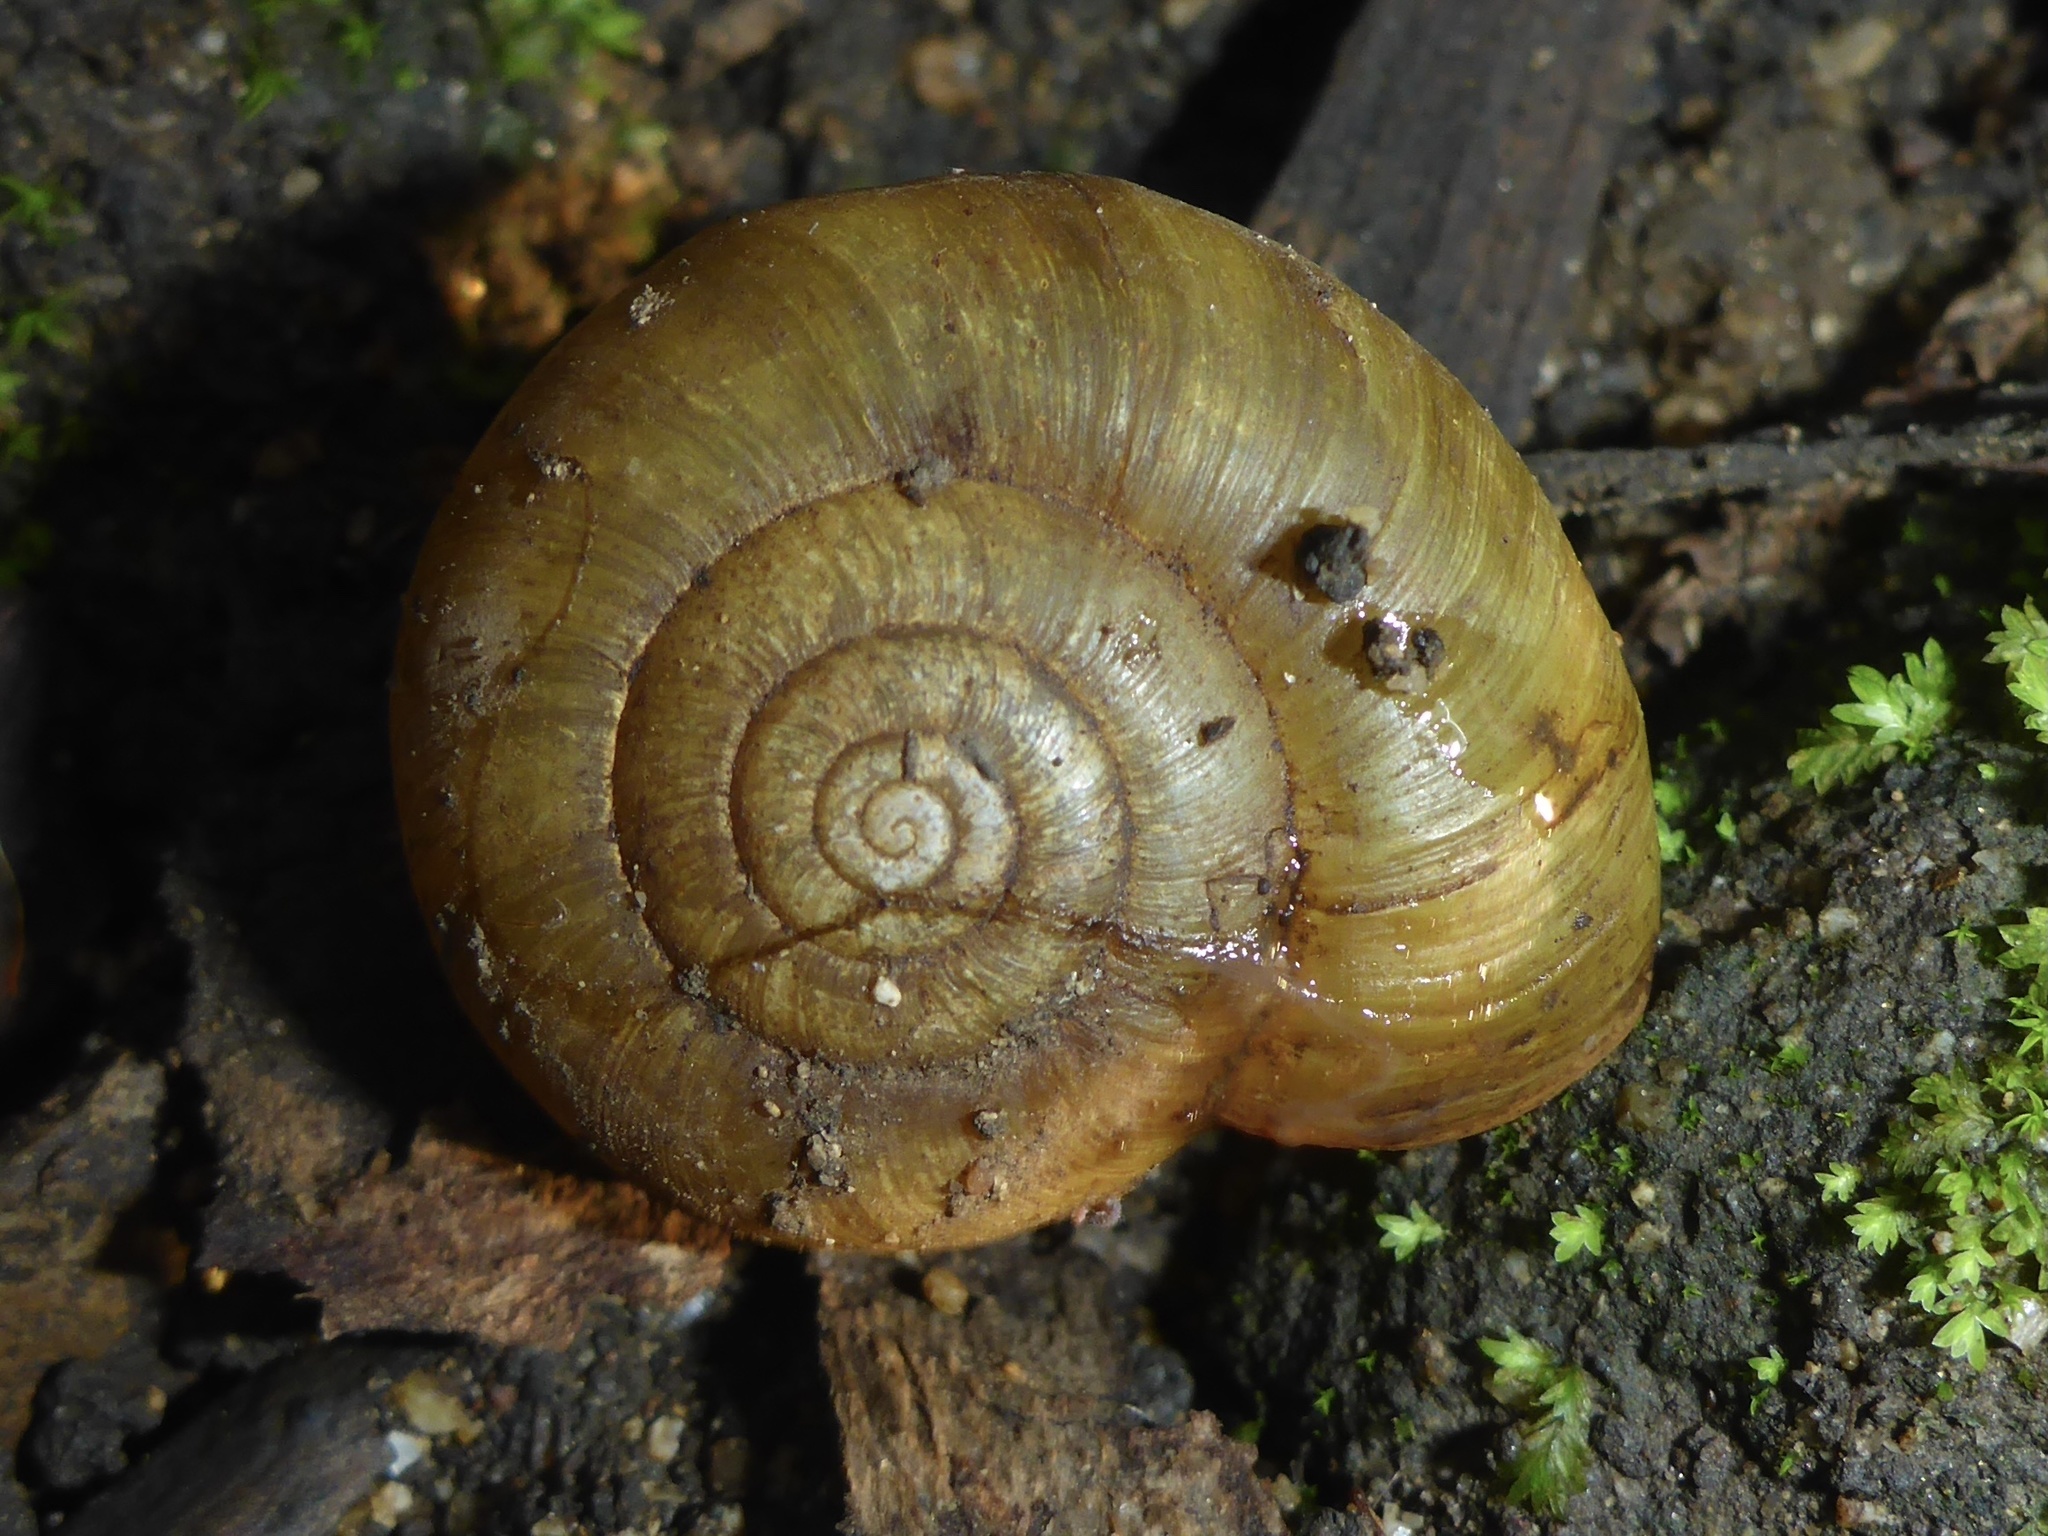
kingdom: Animalia
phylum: Mollusca
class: Gastropoda
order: Stylommatophora
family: Haplotrematidae
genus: Haplotrema
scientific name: Haplotrema minimum
